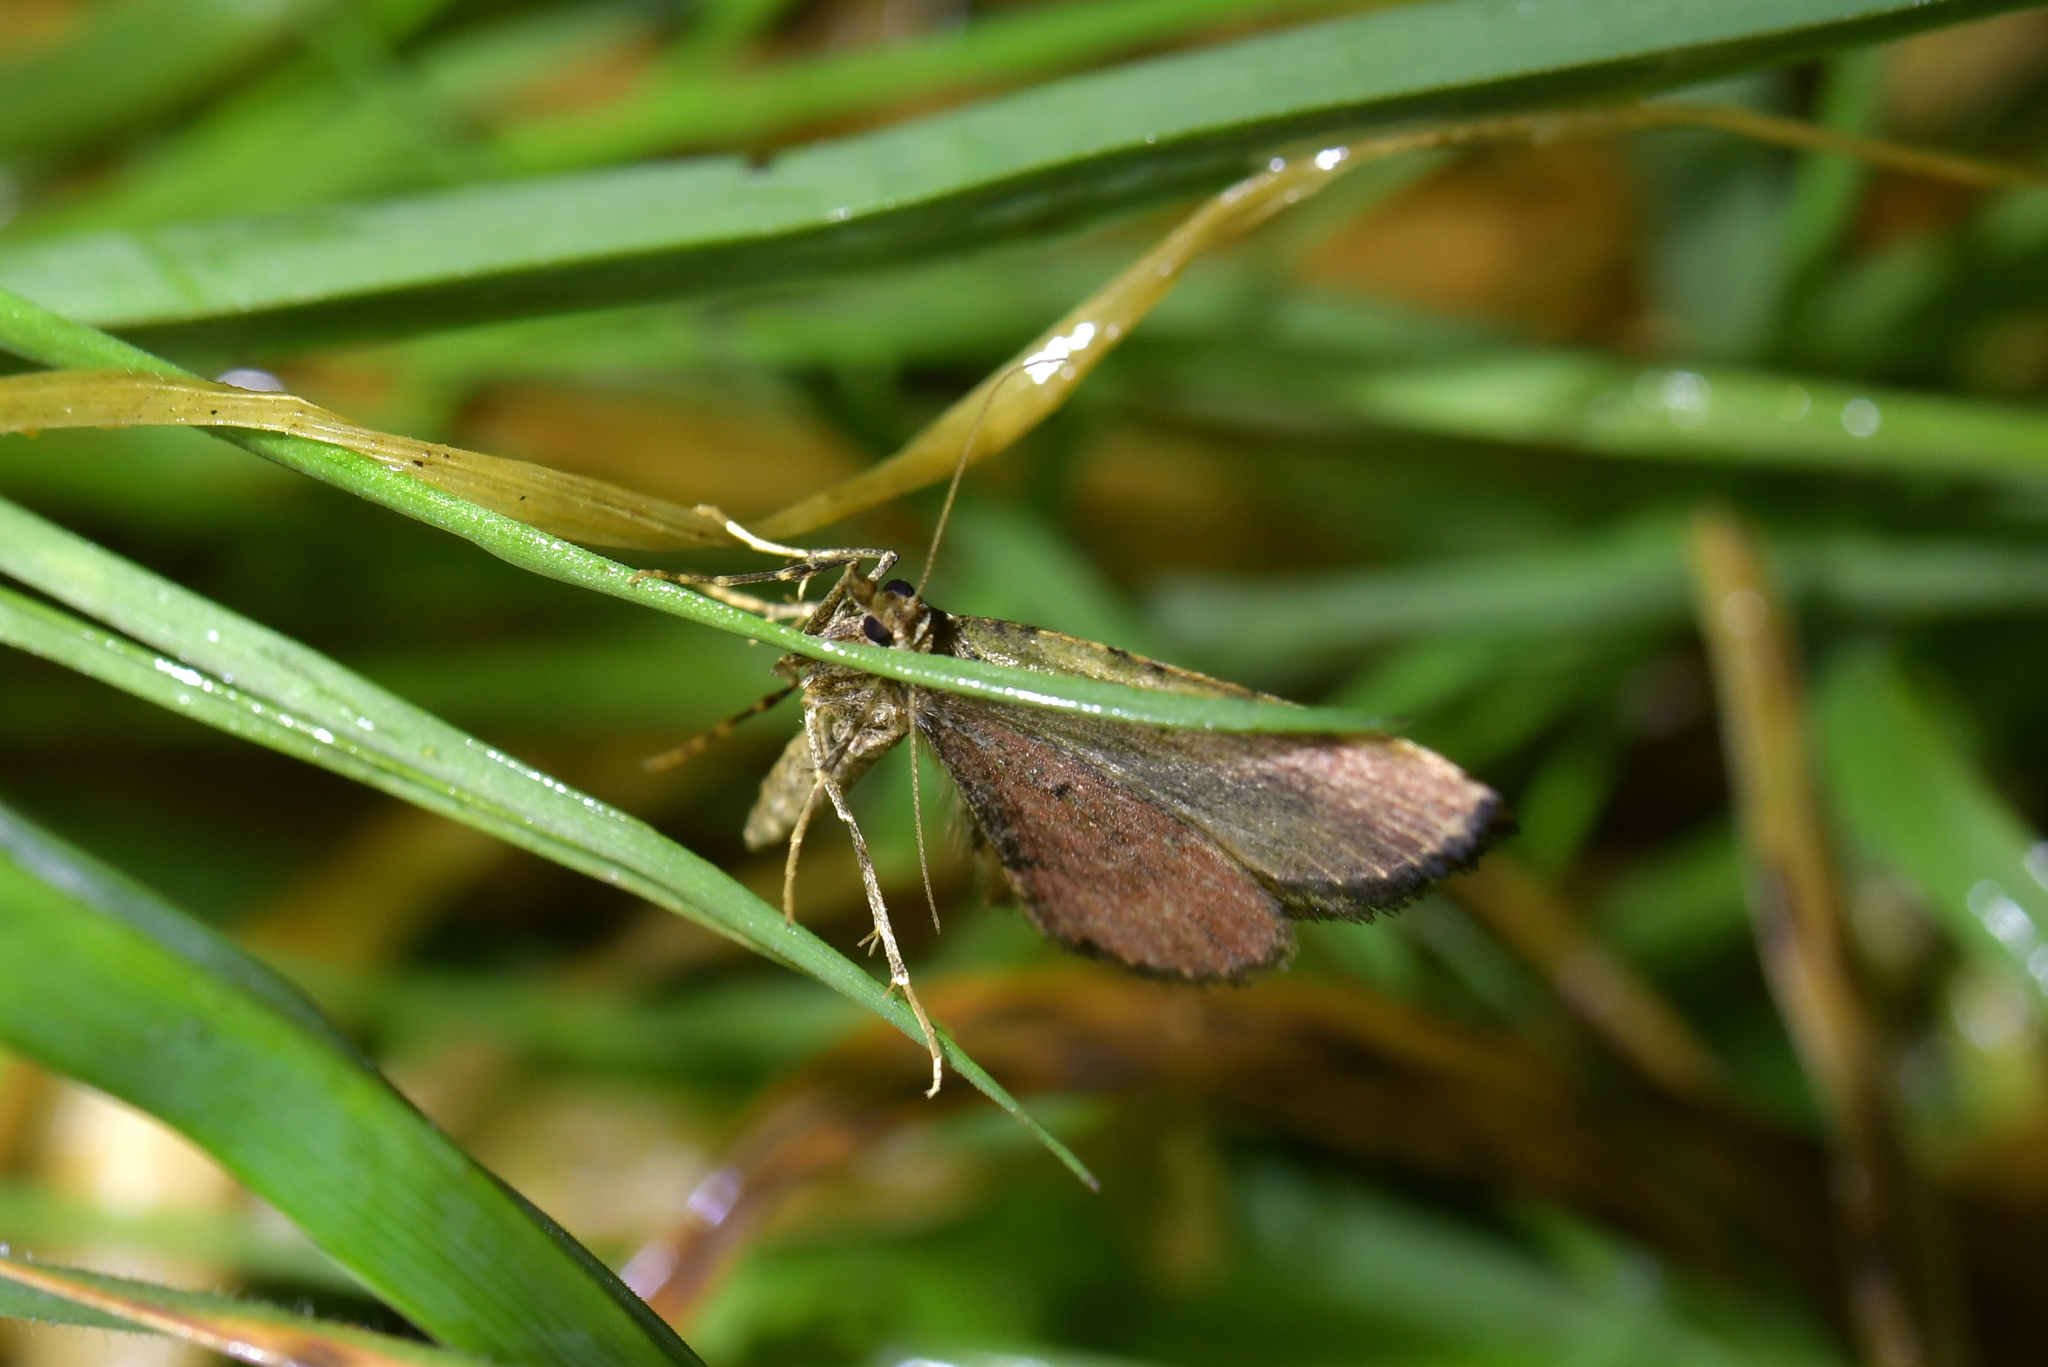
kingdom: Animalia
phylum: Arthropoda
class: Insecta
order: Lepidoptera
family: Geometridae
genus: Epyaxa
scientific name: Epyaxa rosearia
